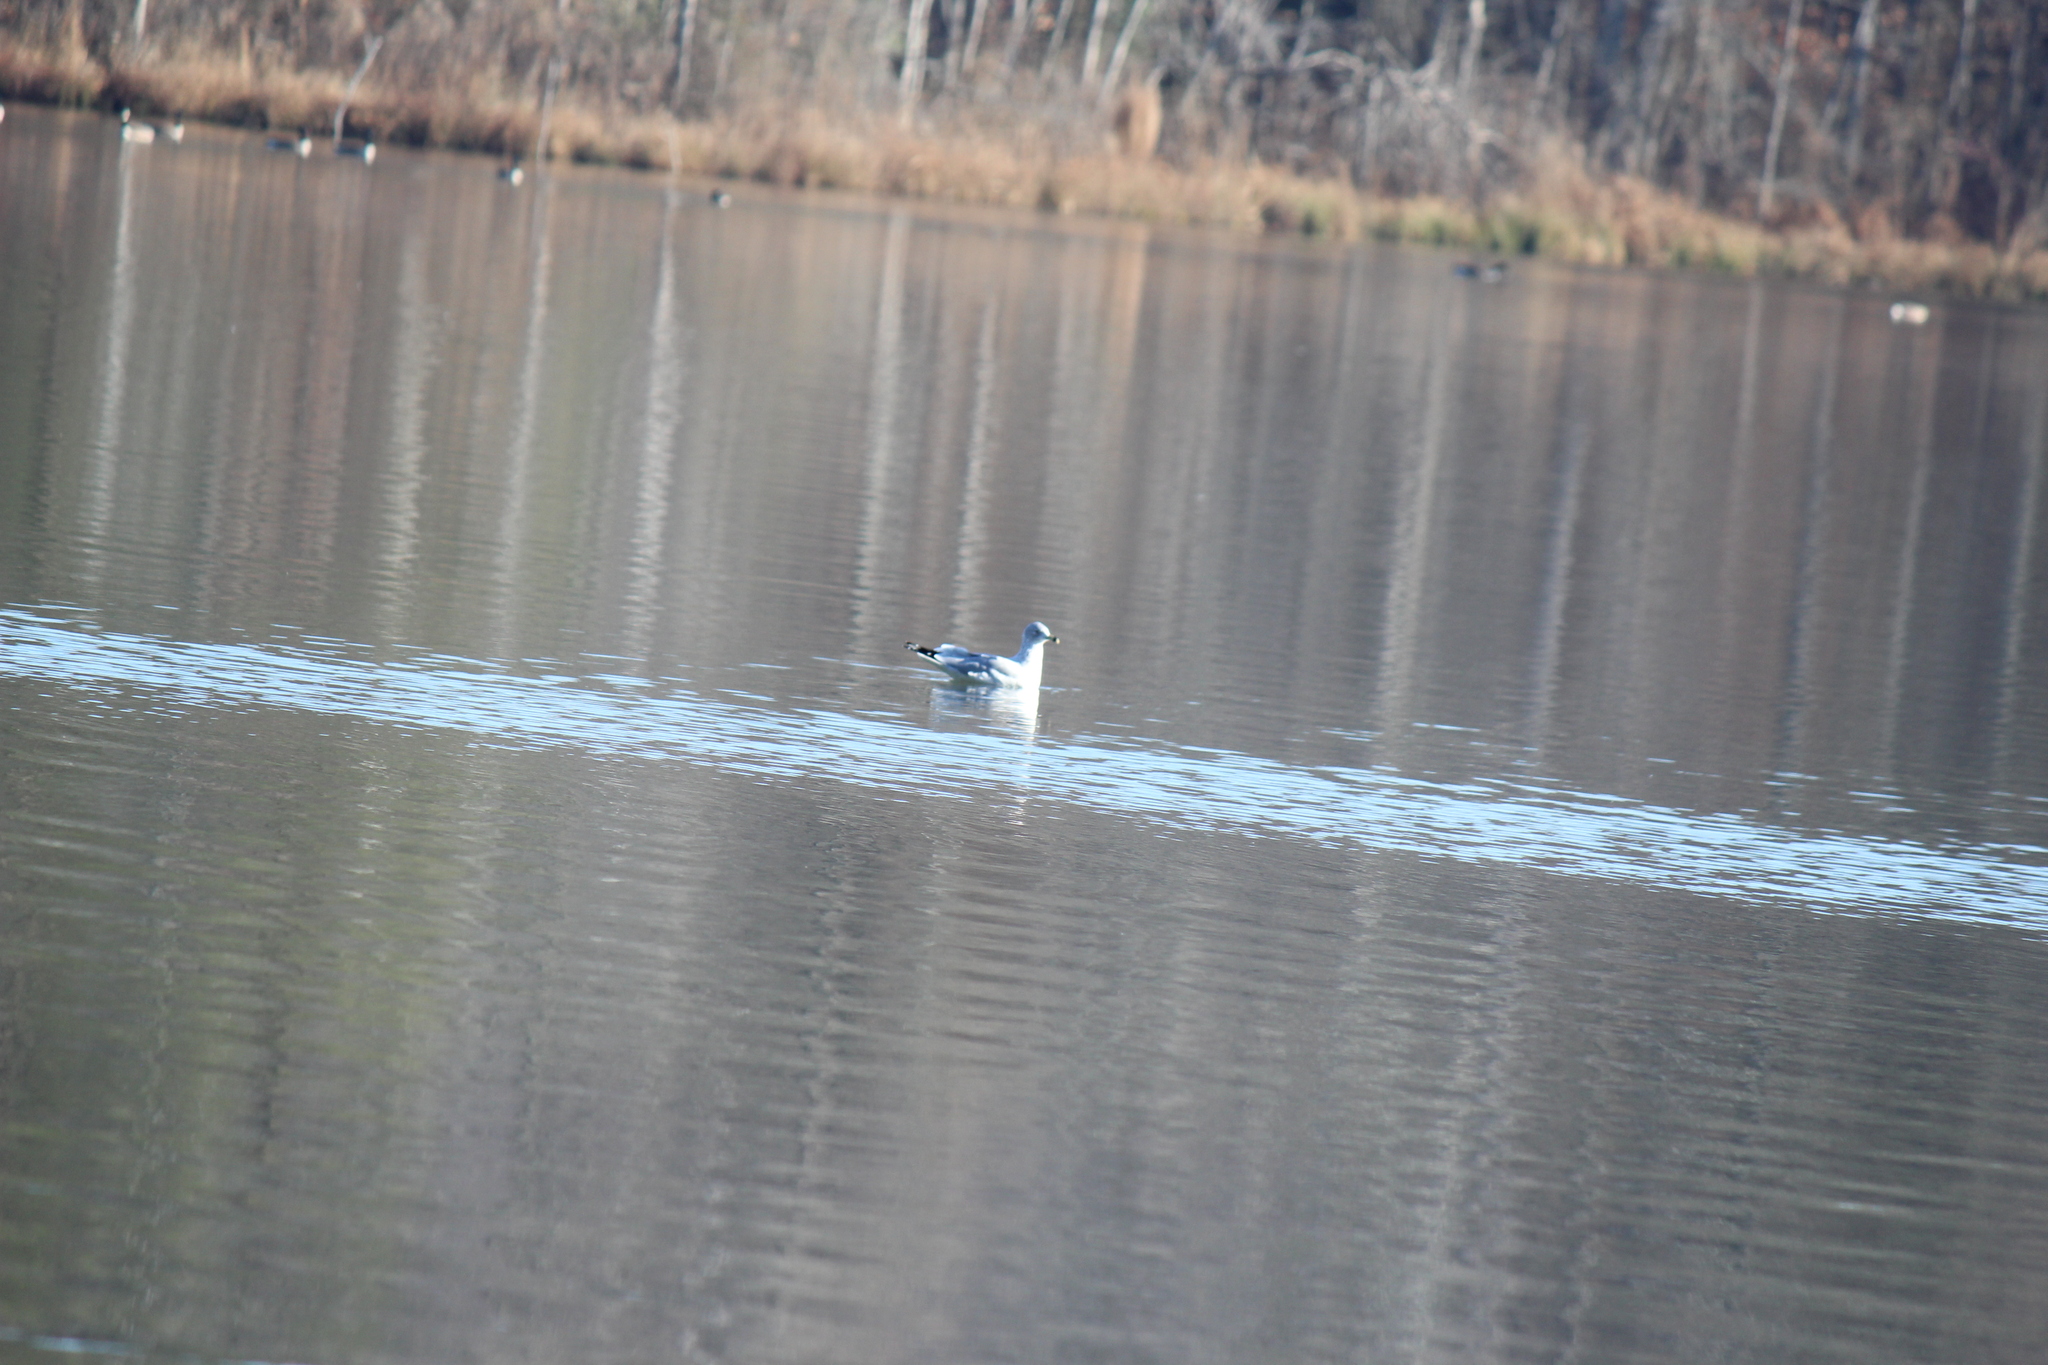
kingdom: Animalia
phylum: Chordata
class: Aves
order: Charadriiformes
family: Laridae
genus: Larus
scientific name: Larus delawarensis
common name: Ring-billed gull
